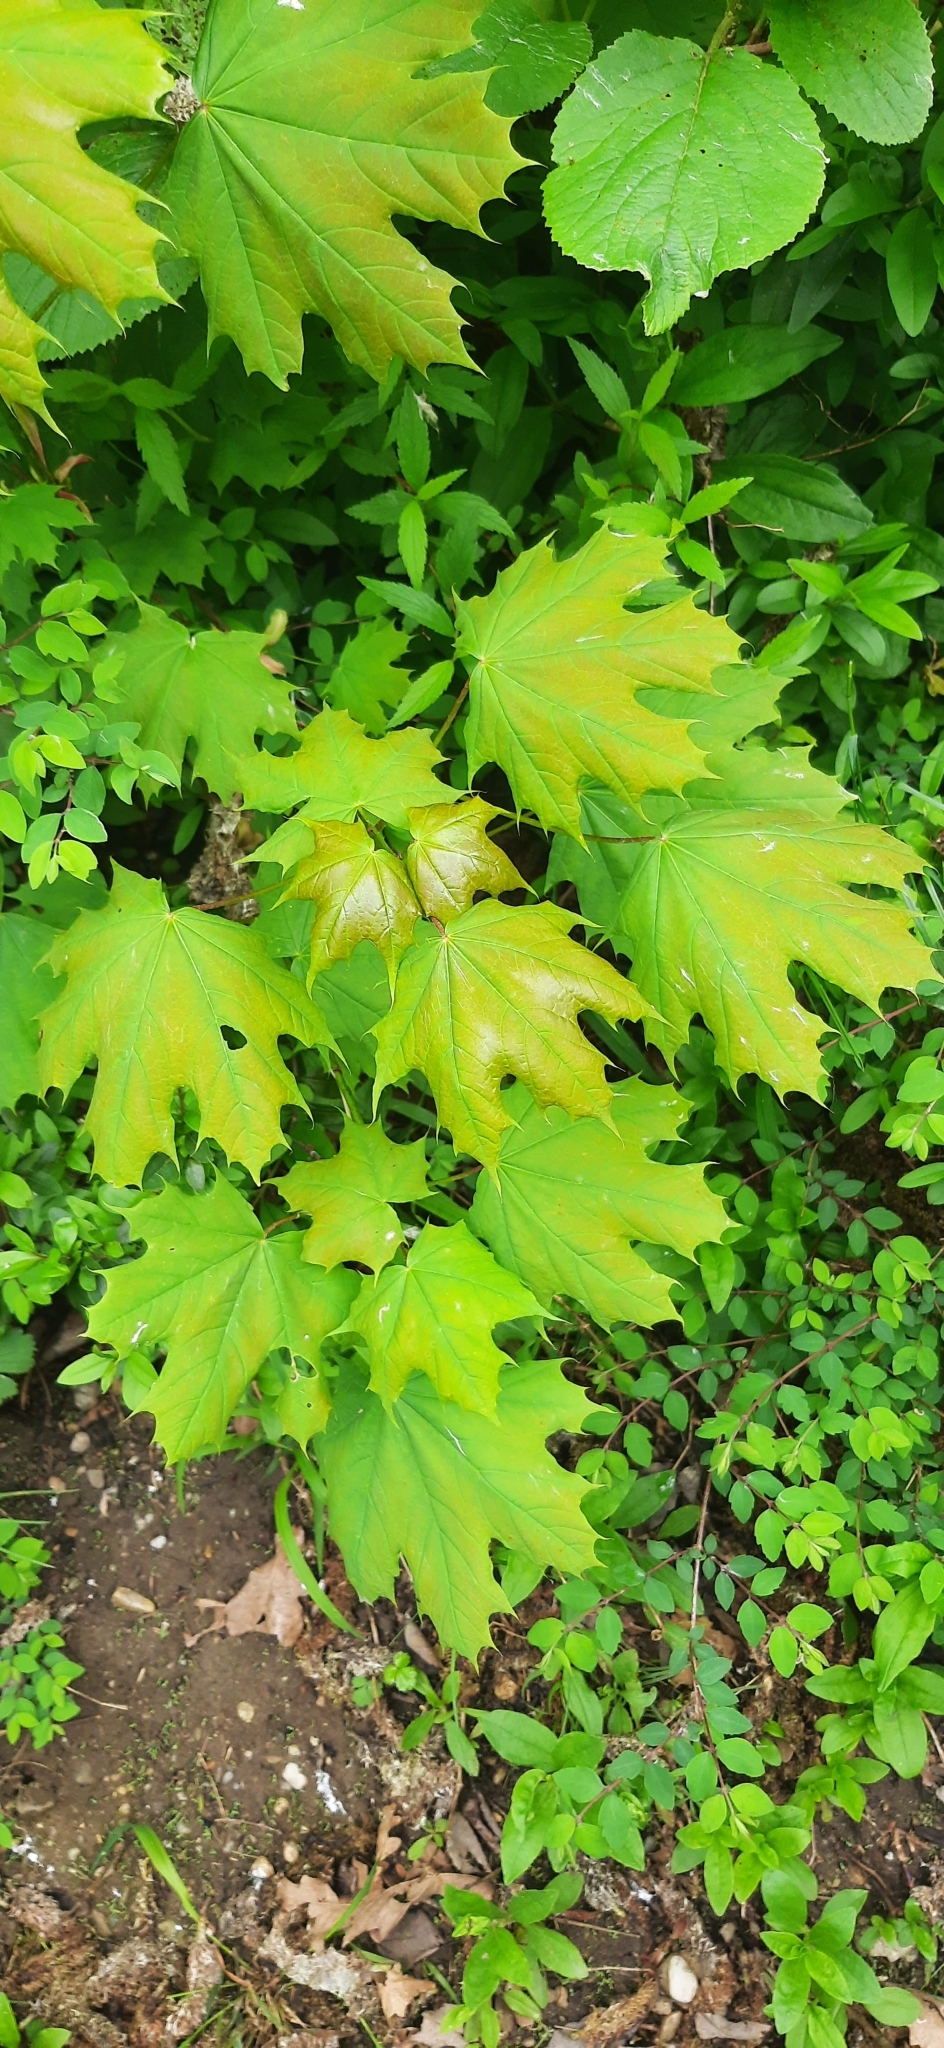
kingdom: Plantae
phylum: Tracheophyta
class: Magnoliopsida
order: Sapindales
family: Sapindaceae
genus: Acer
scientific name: Acer platanoides
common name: Norway maple
